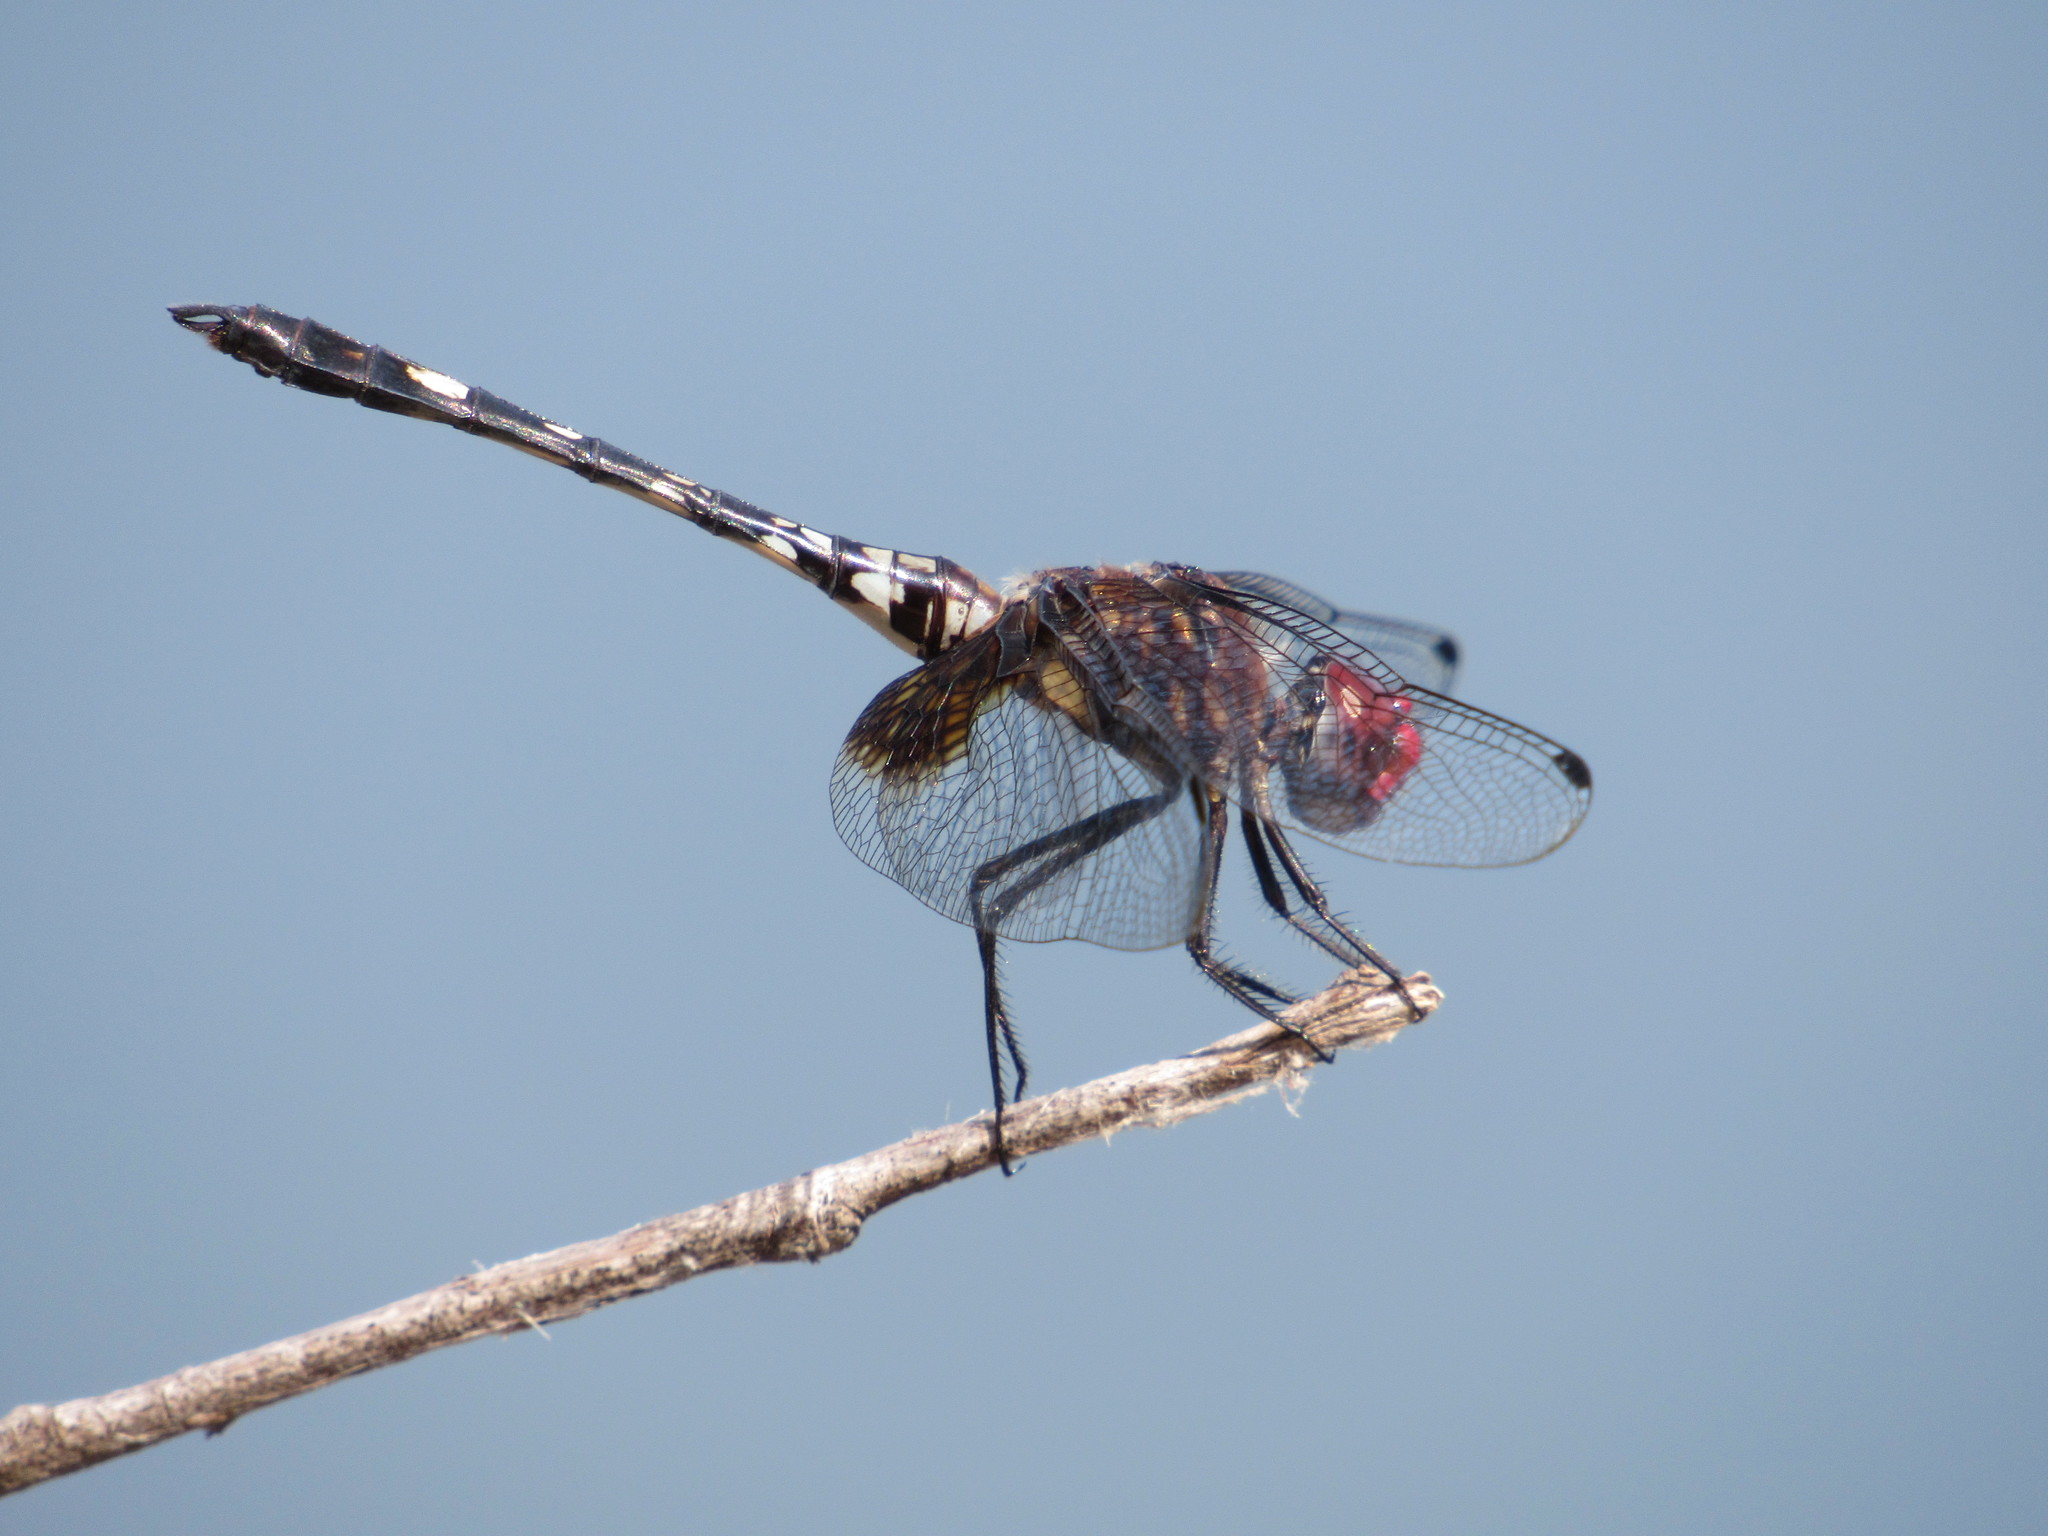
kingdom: Animalia
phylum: Arthropoda
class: Insecta
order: Odonata
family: Libellulidae
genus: Dythemis
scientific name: Dythemis fugax
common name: Checkered setwing
